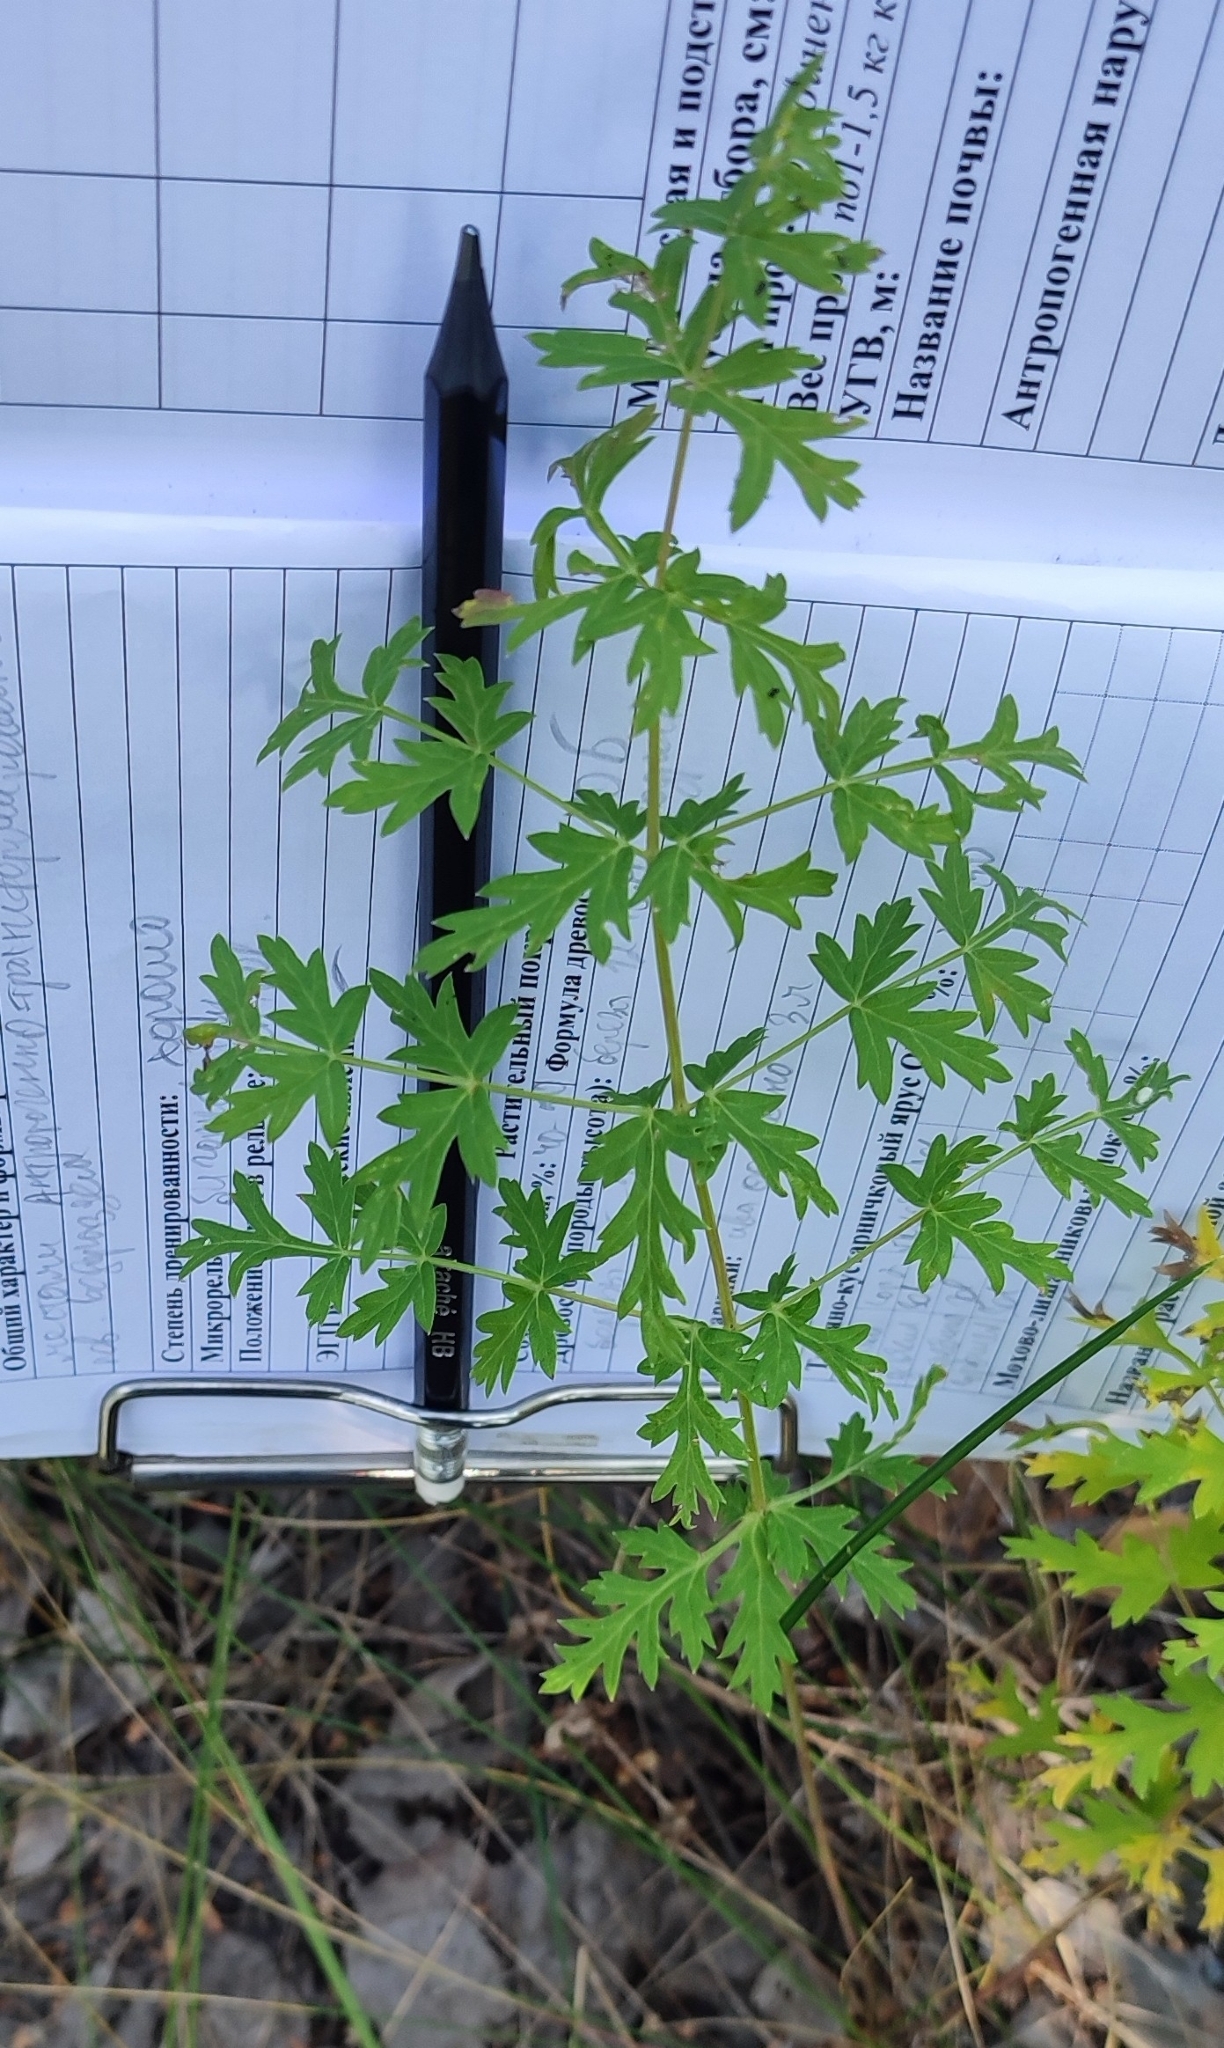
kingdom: Plantae
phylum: Tracheophyta
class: Magnoliopsida
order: Apiales
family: Apiaceae
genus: Seseli
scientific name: Seseli libanotis
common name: Mooncarrot
